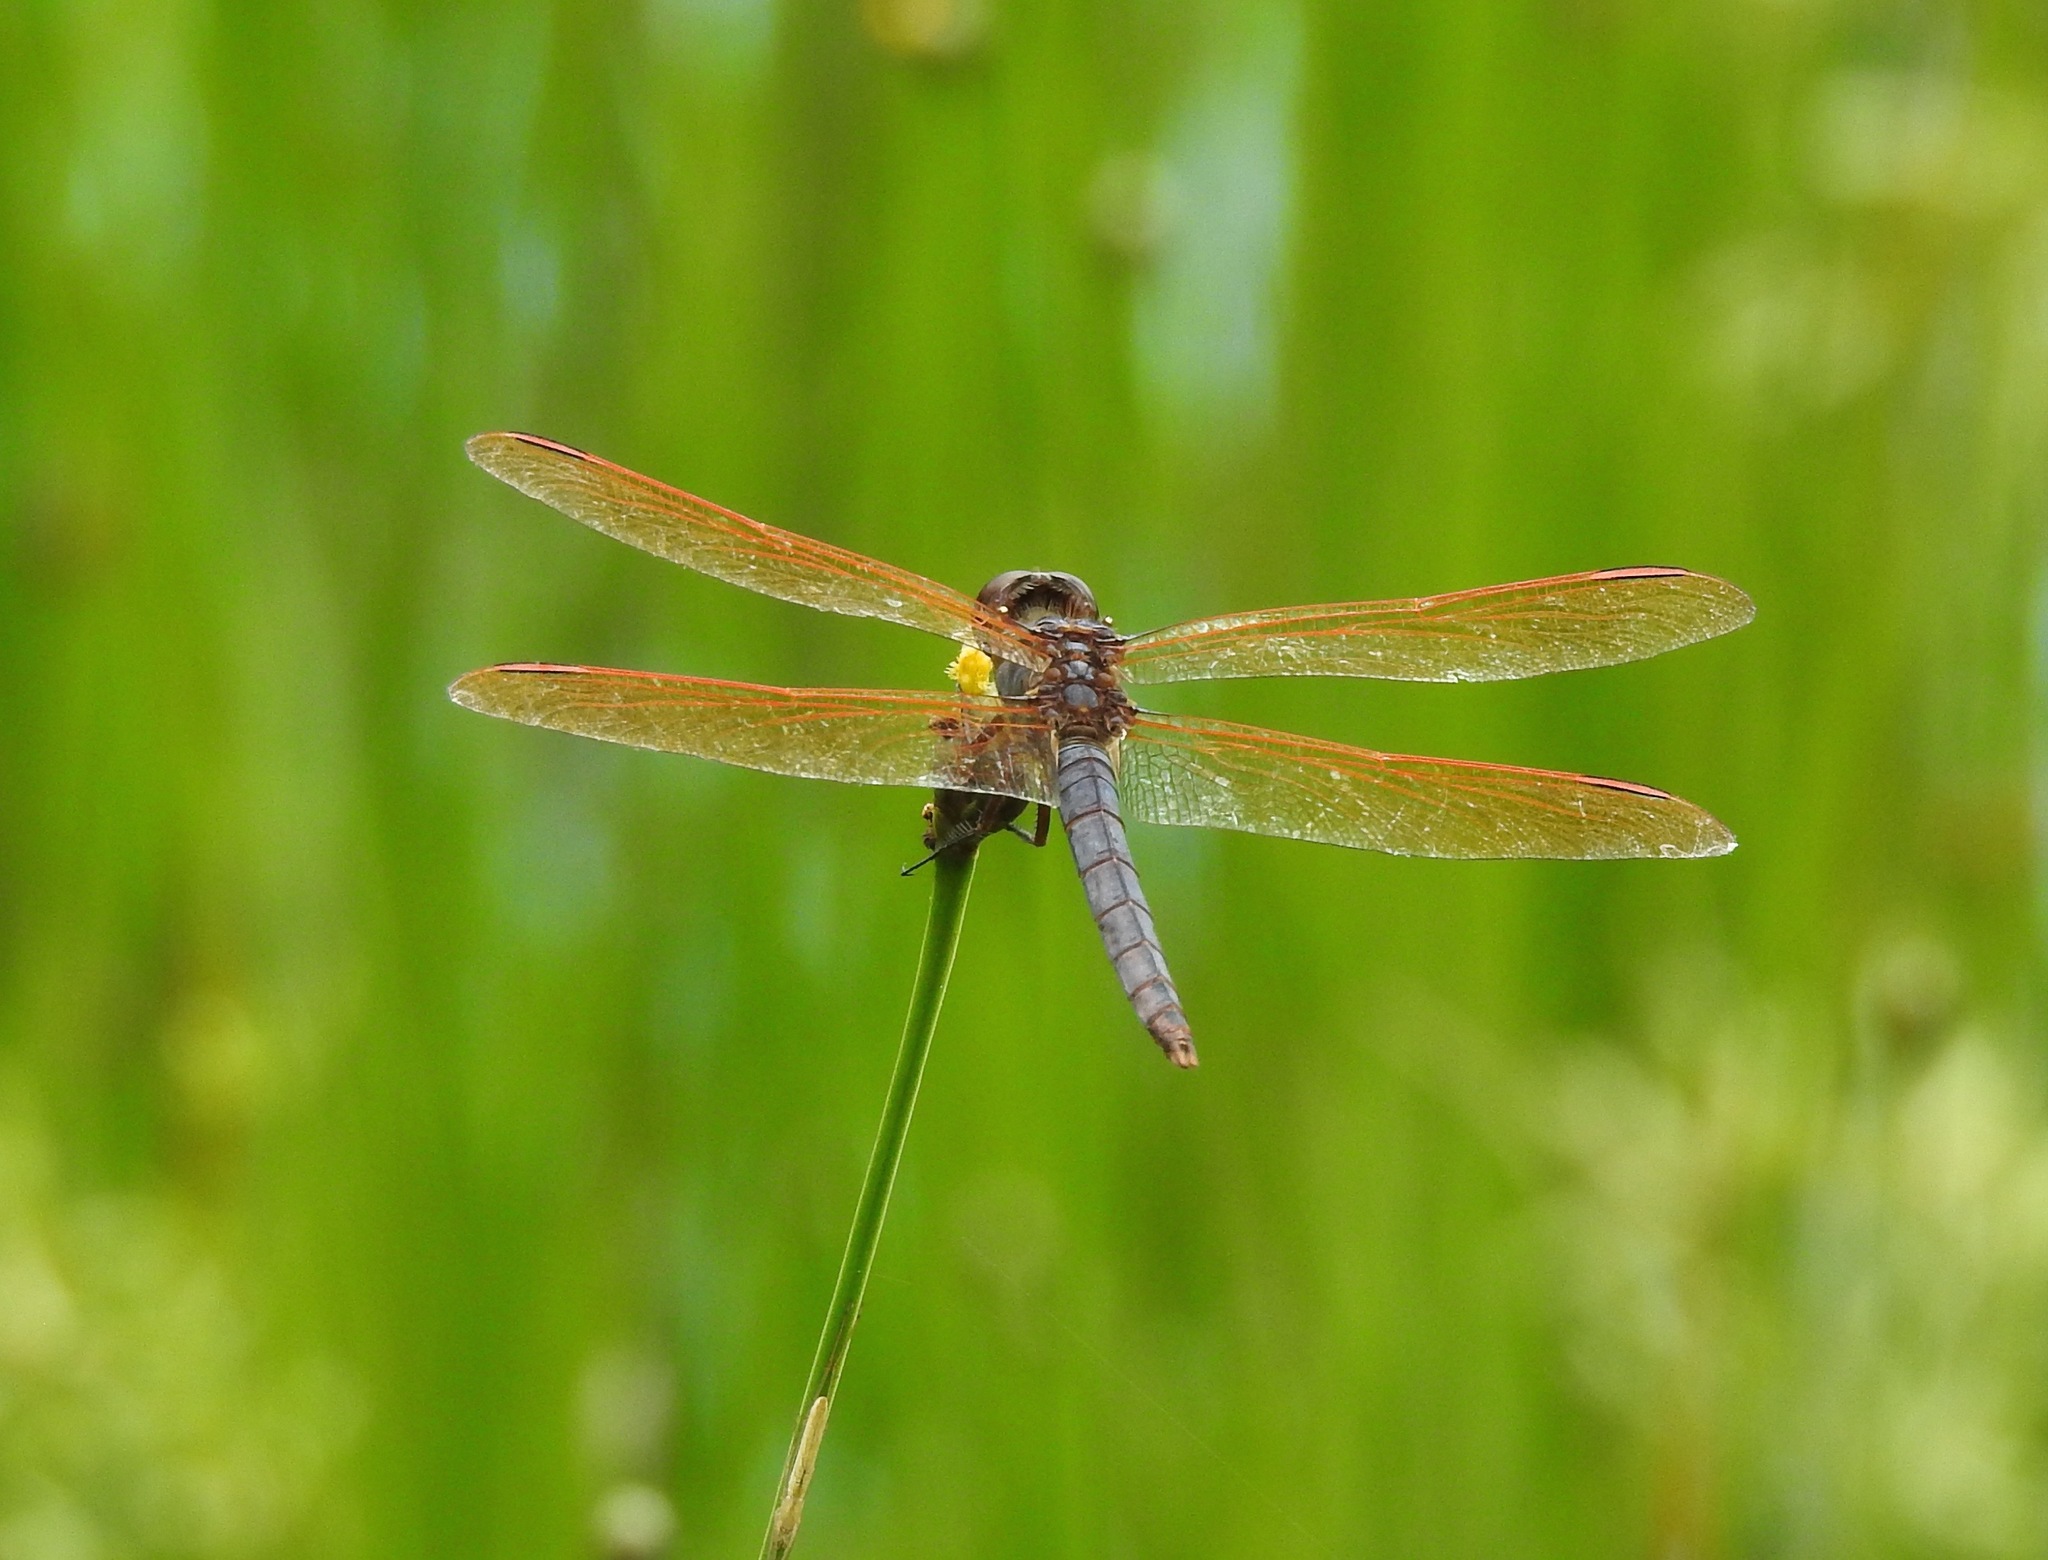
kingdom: Animalia
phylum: Arthropoda
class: Insecta
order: Odonata
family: Libellulidae
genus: Libellula
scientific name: Libellula jesseana
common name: Purple skimmer
